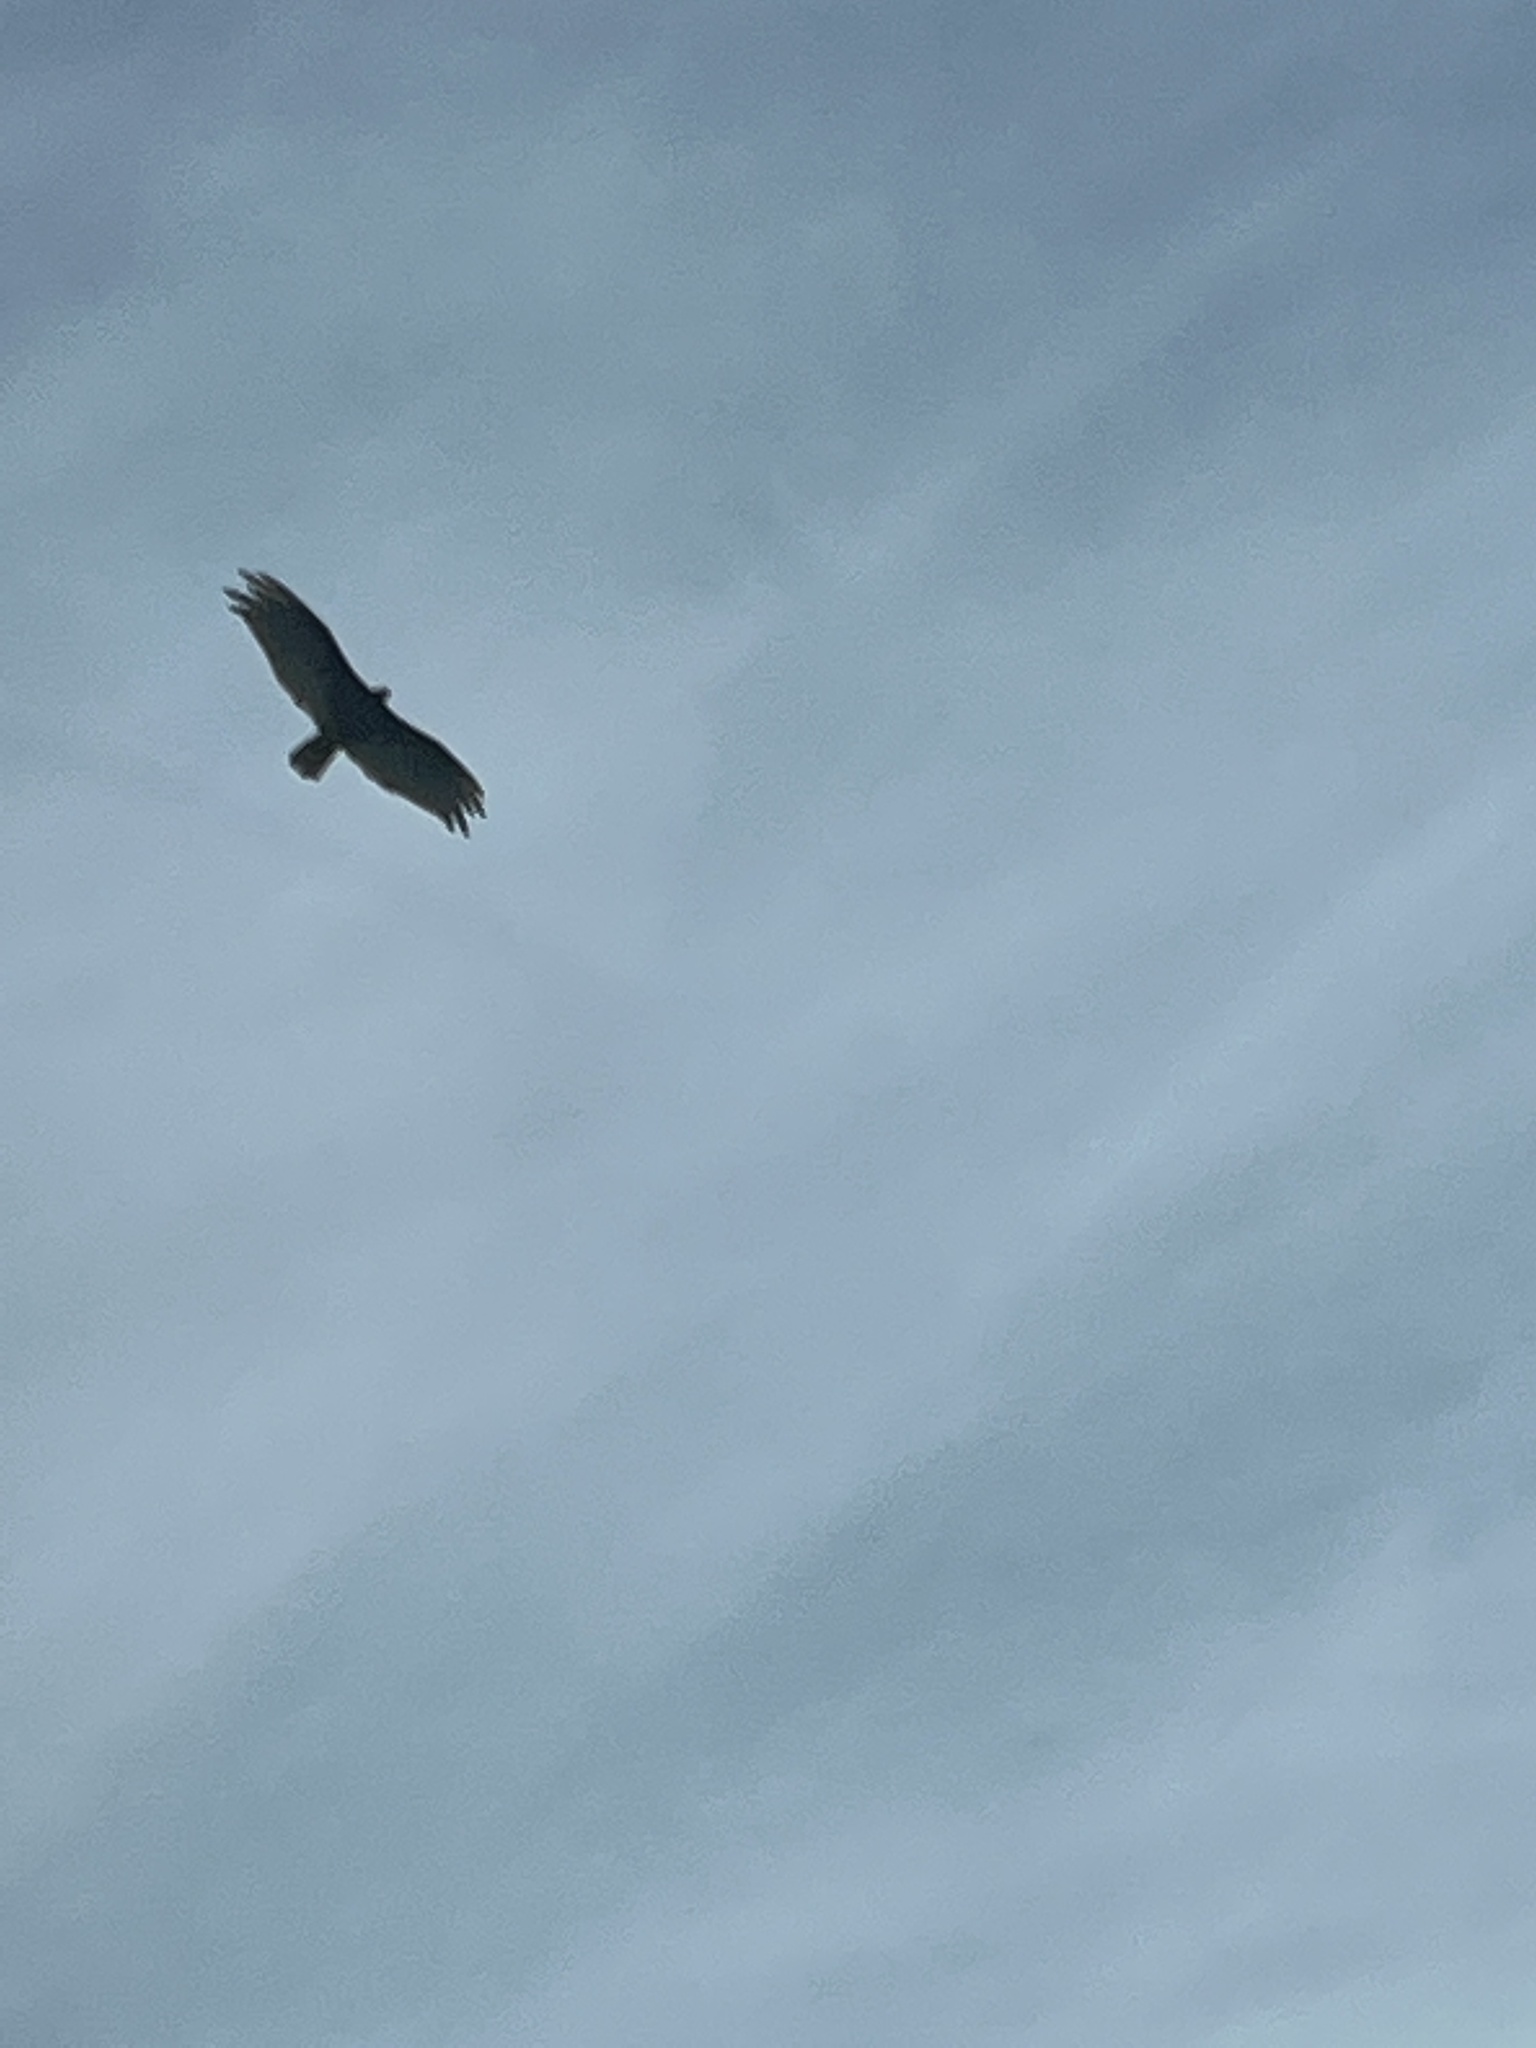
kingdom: Animalia
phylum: Chordata
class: Aves
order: Accipitriformes
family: Cathartidae
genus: Cathartes
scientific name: Cathartes aura
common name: Turkey vulture
